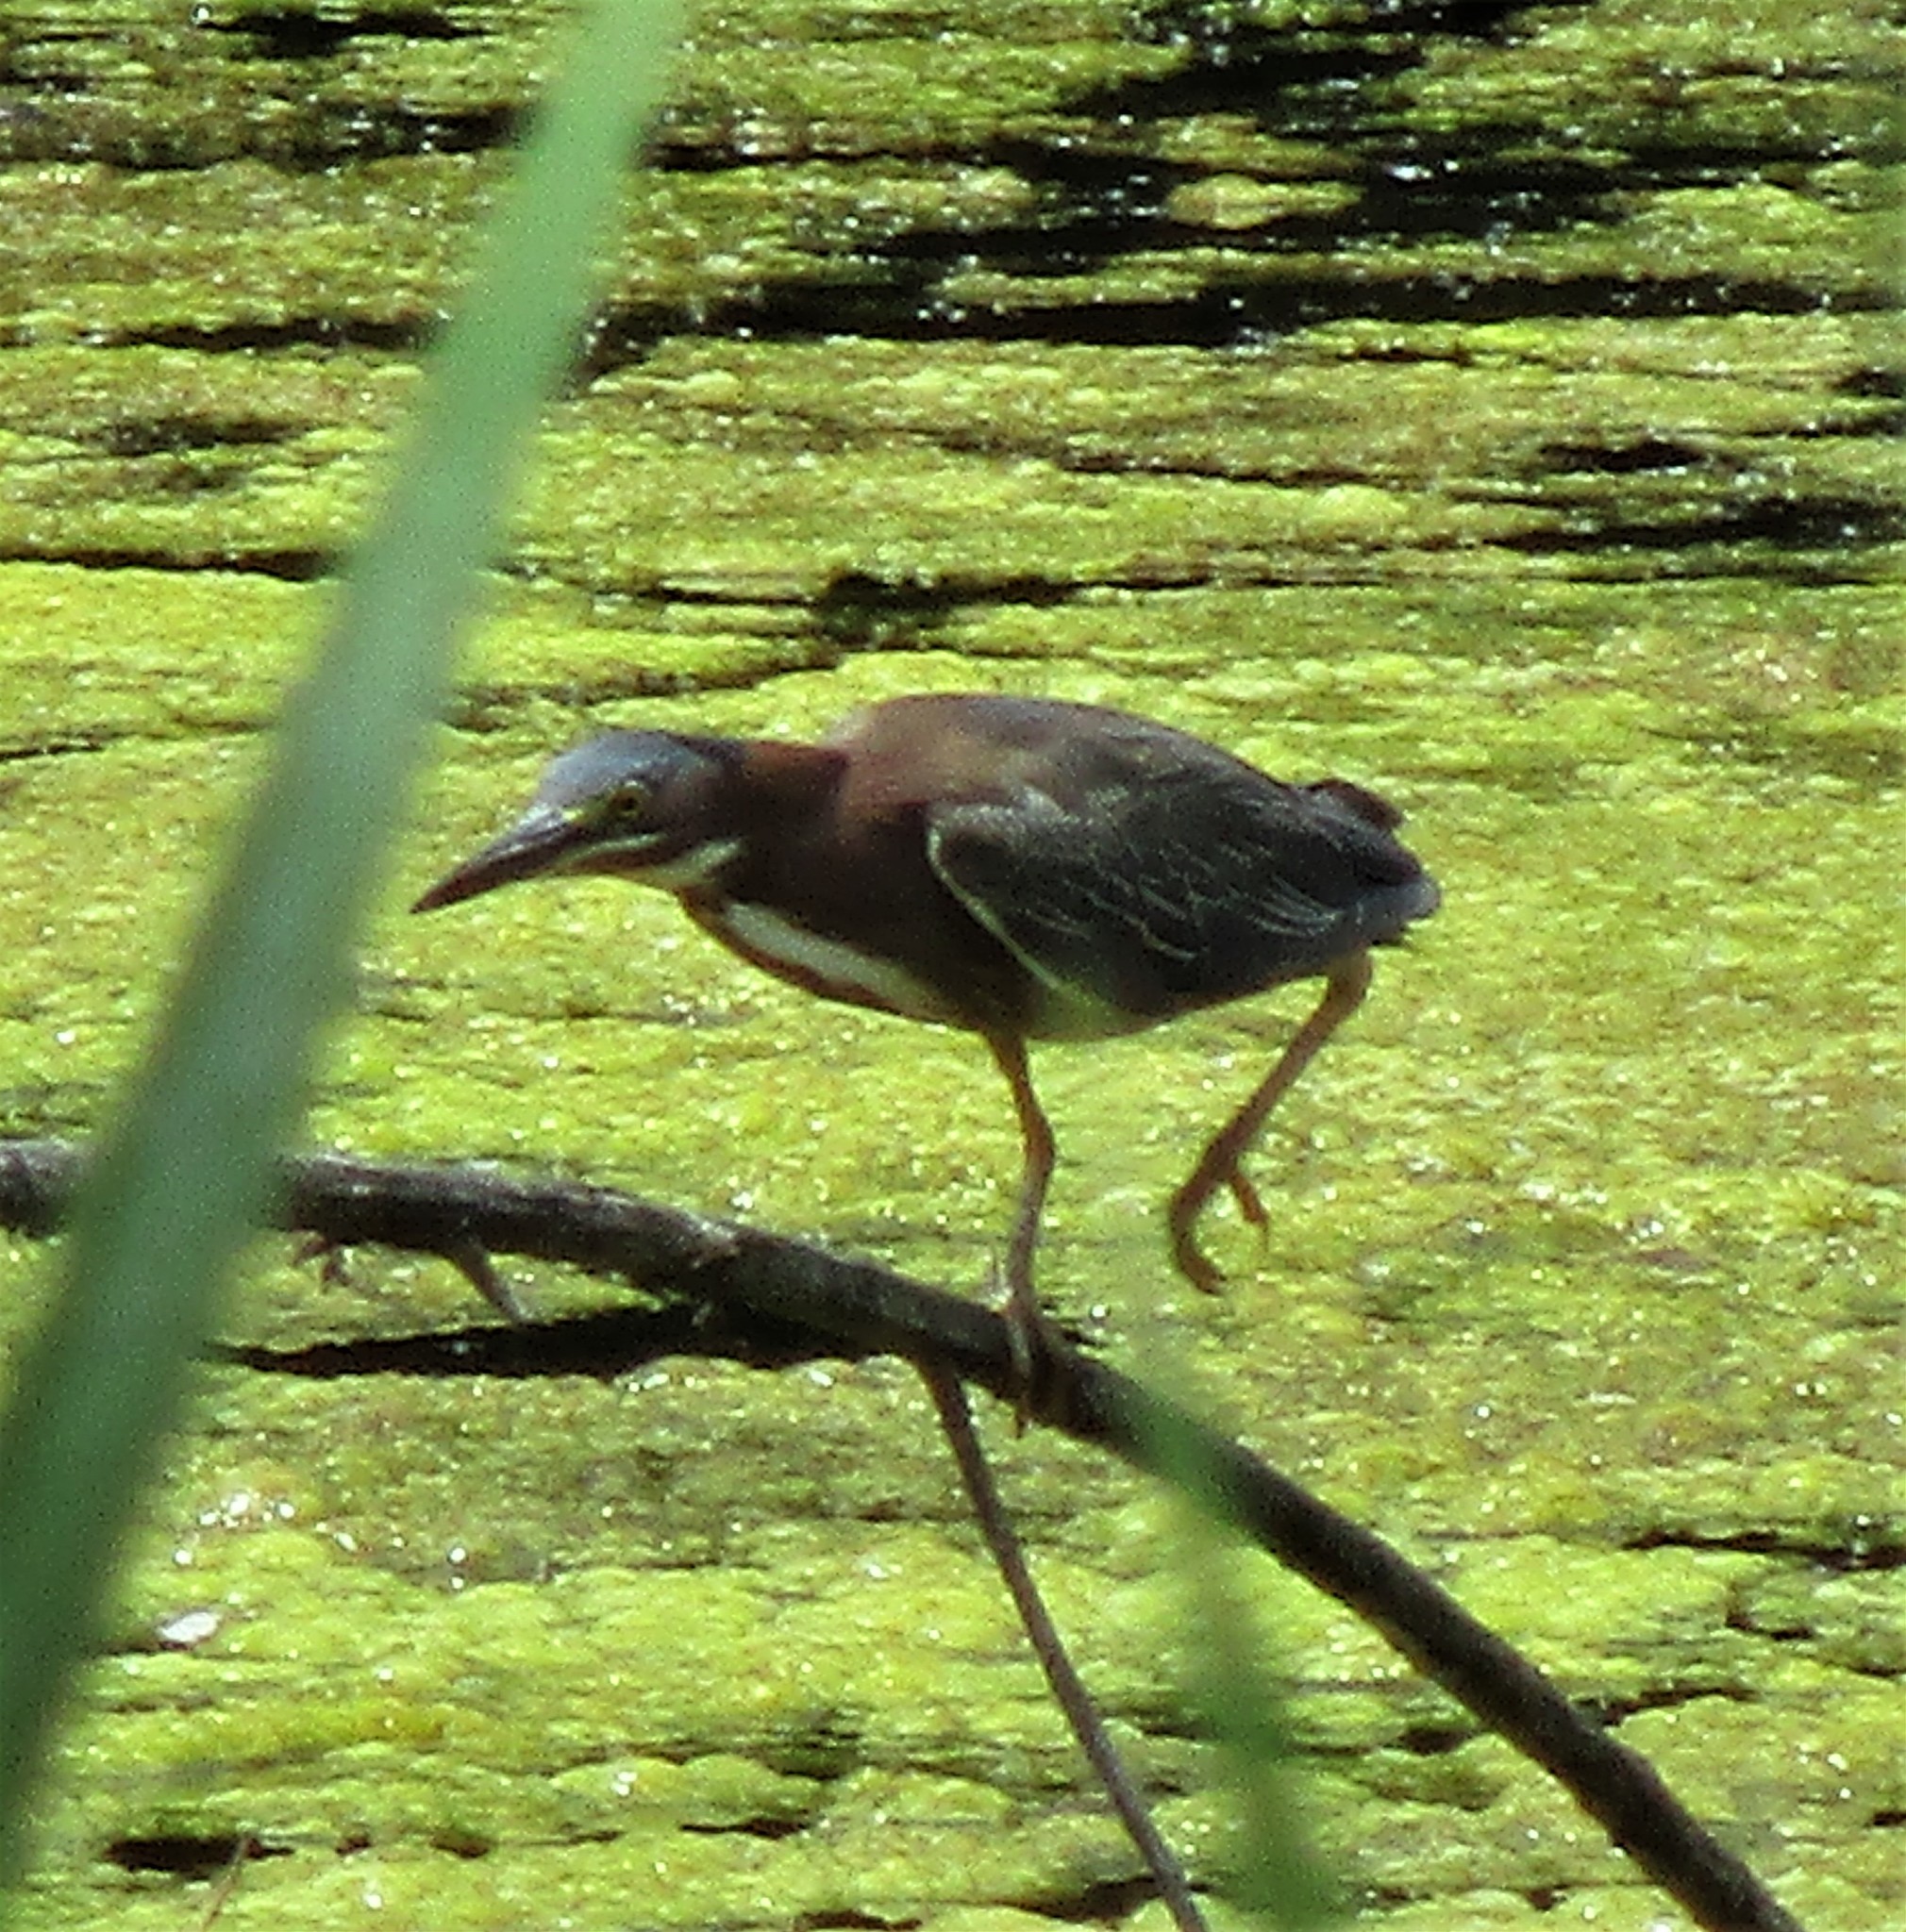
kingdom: Animalia
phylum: Chordata
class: Aves
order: Pelecaniformes
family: Ardeidae
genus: Butorides
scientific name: Butorides virescens
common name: Green heron
